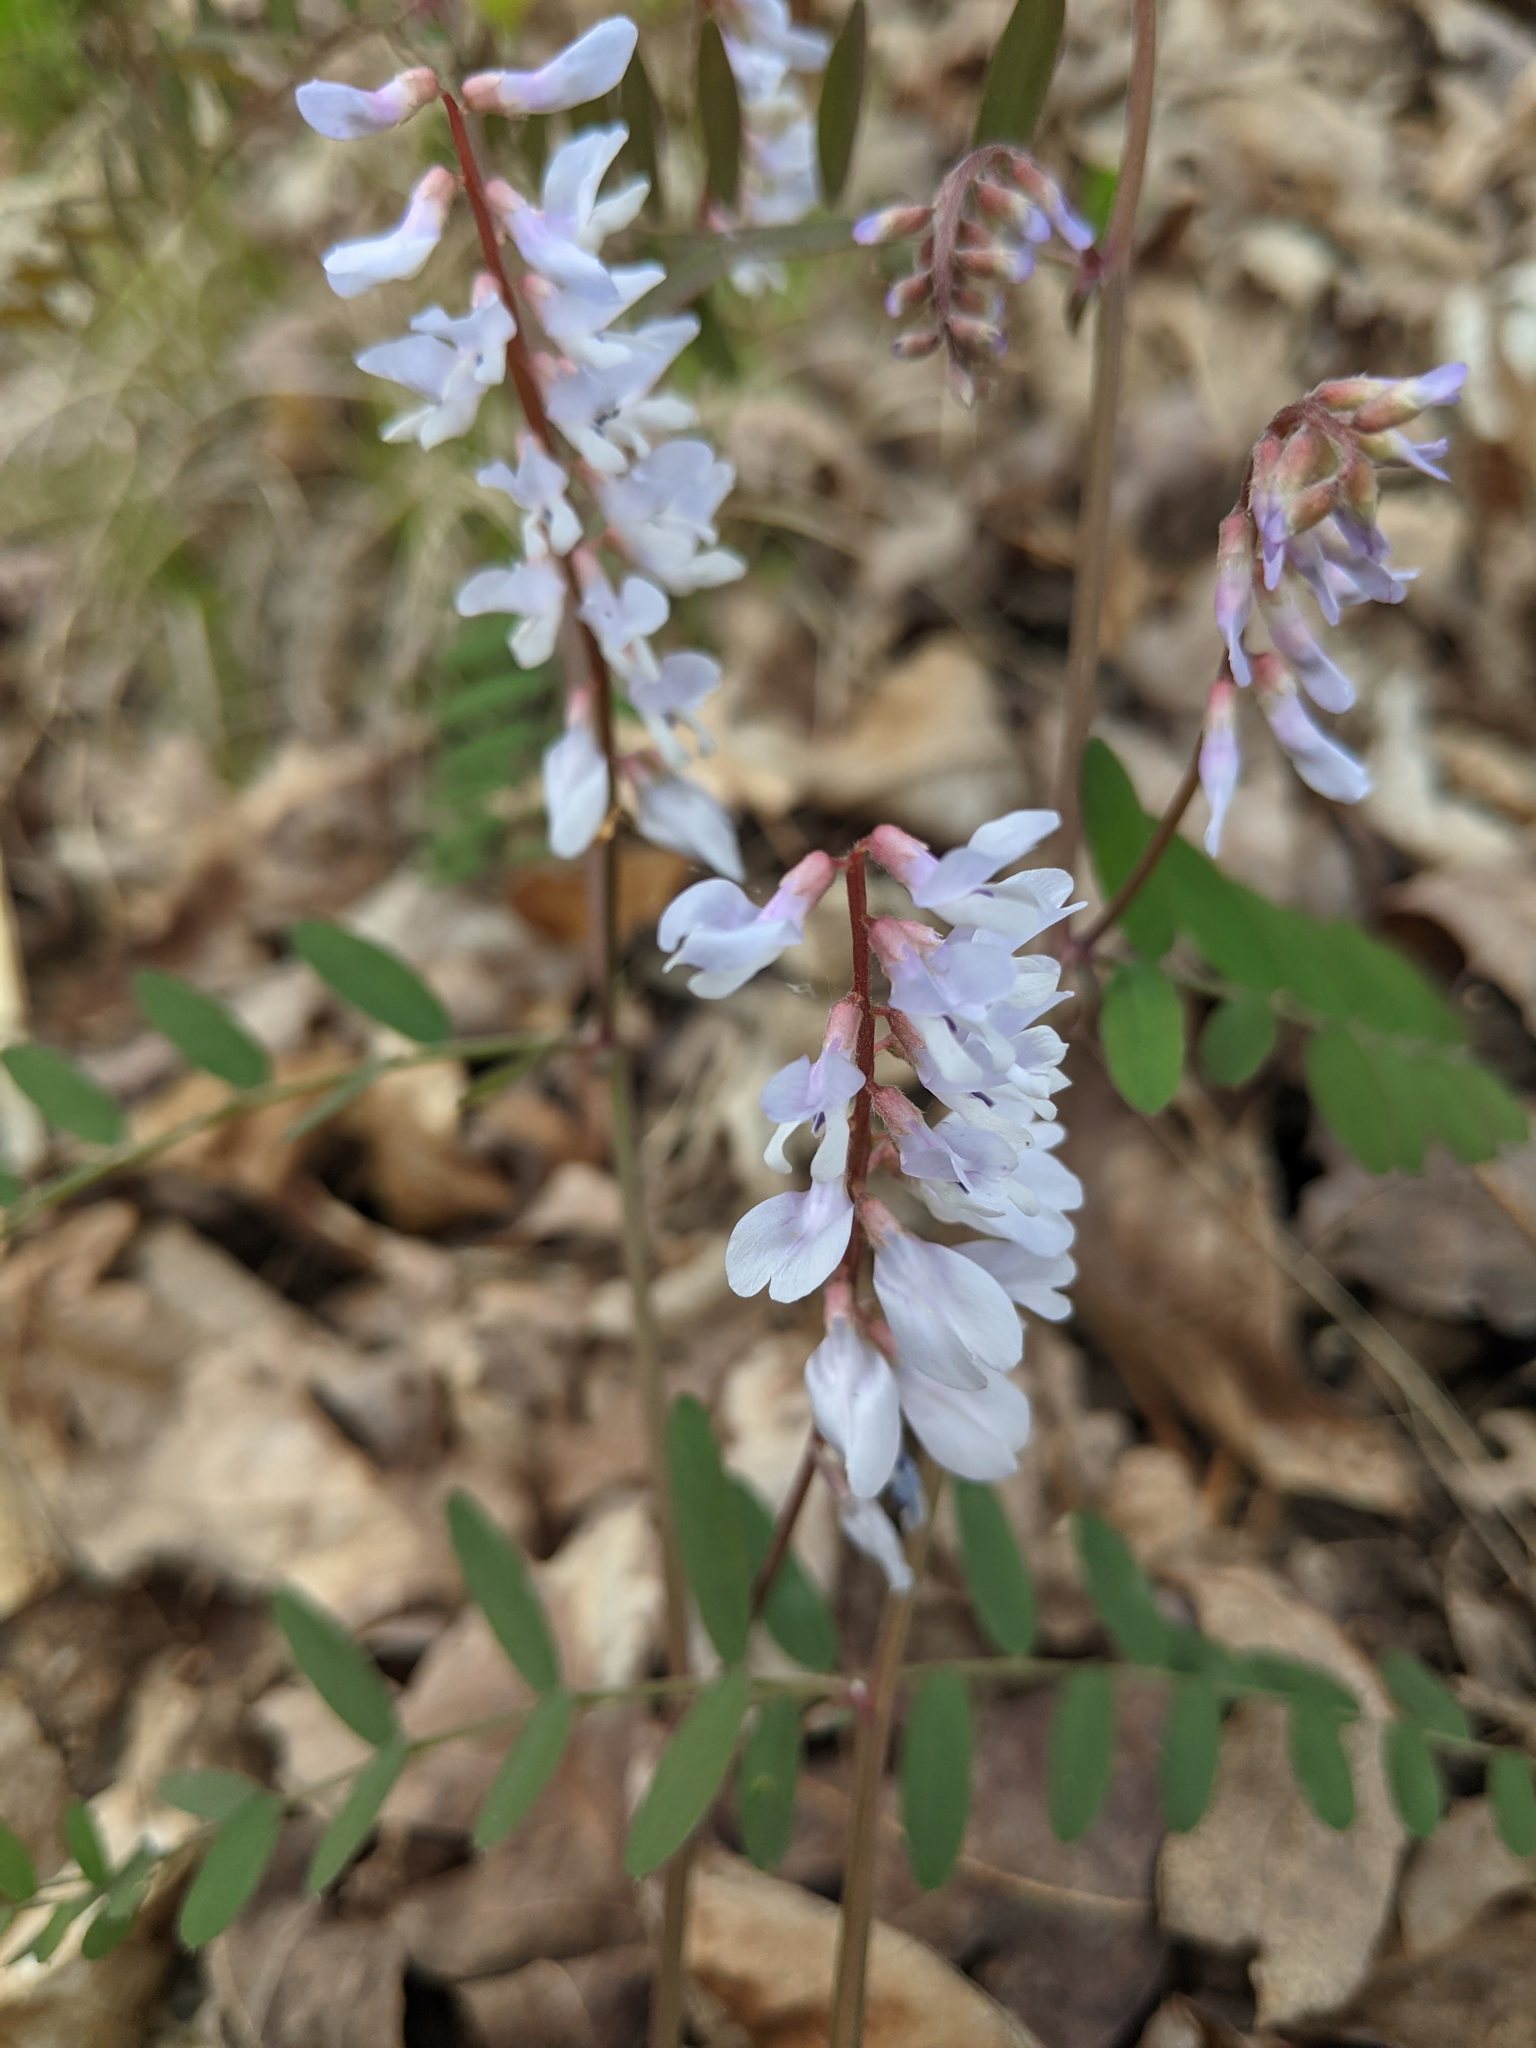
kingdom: Plantae
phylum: Tracheophyta
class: Magnoliopsida
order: Fabales
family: Fabaceae
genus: Vicia
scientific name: Vicia caroliniana
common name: Carolina vetch
